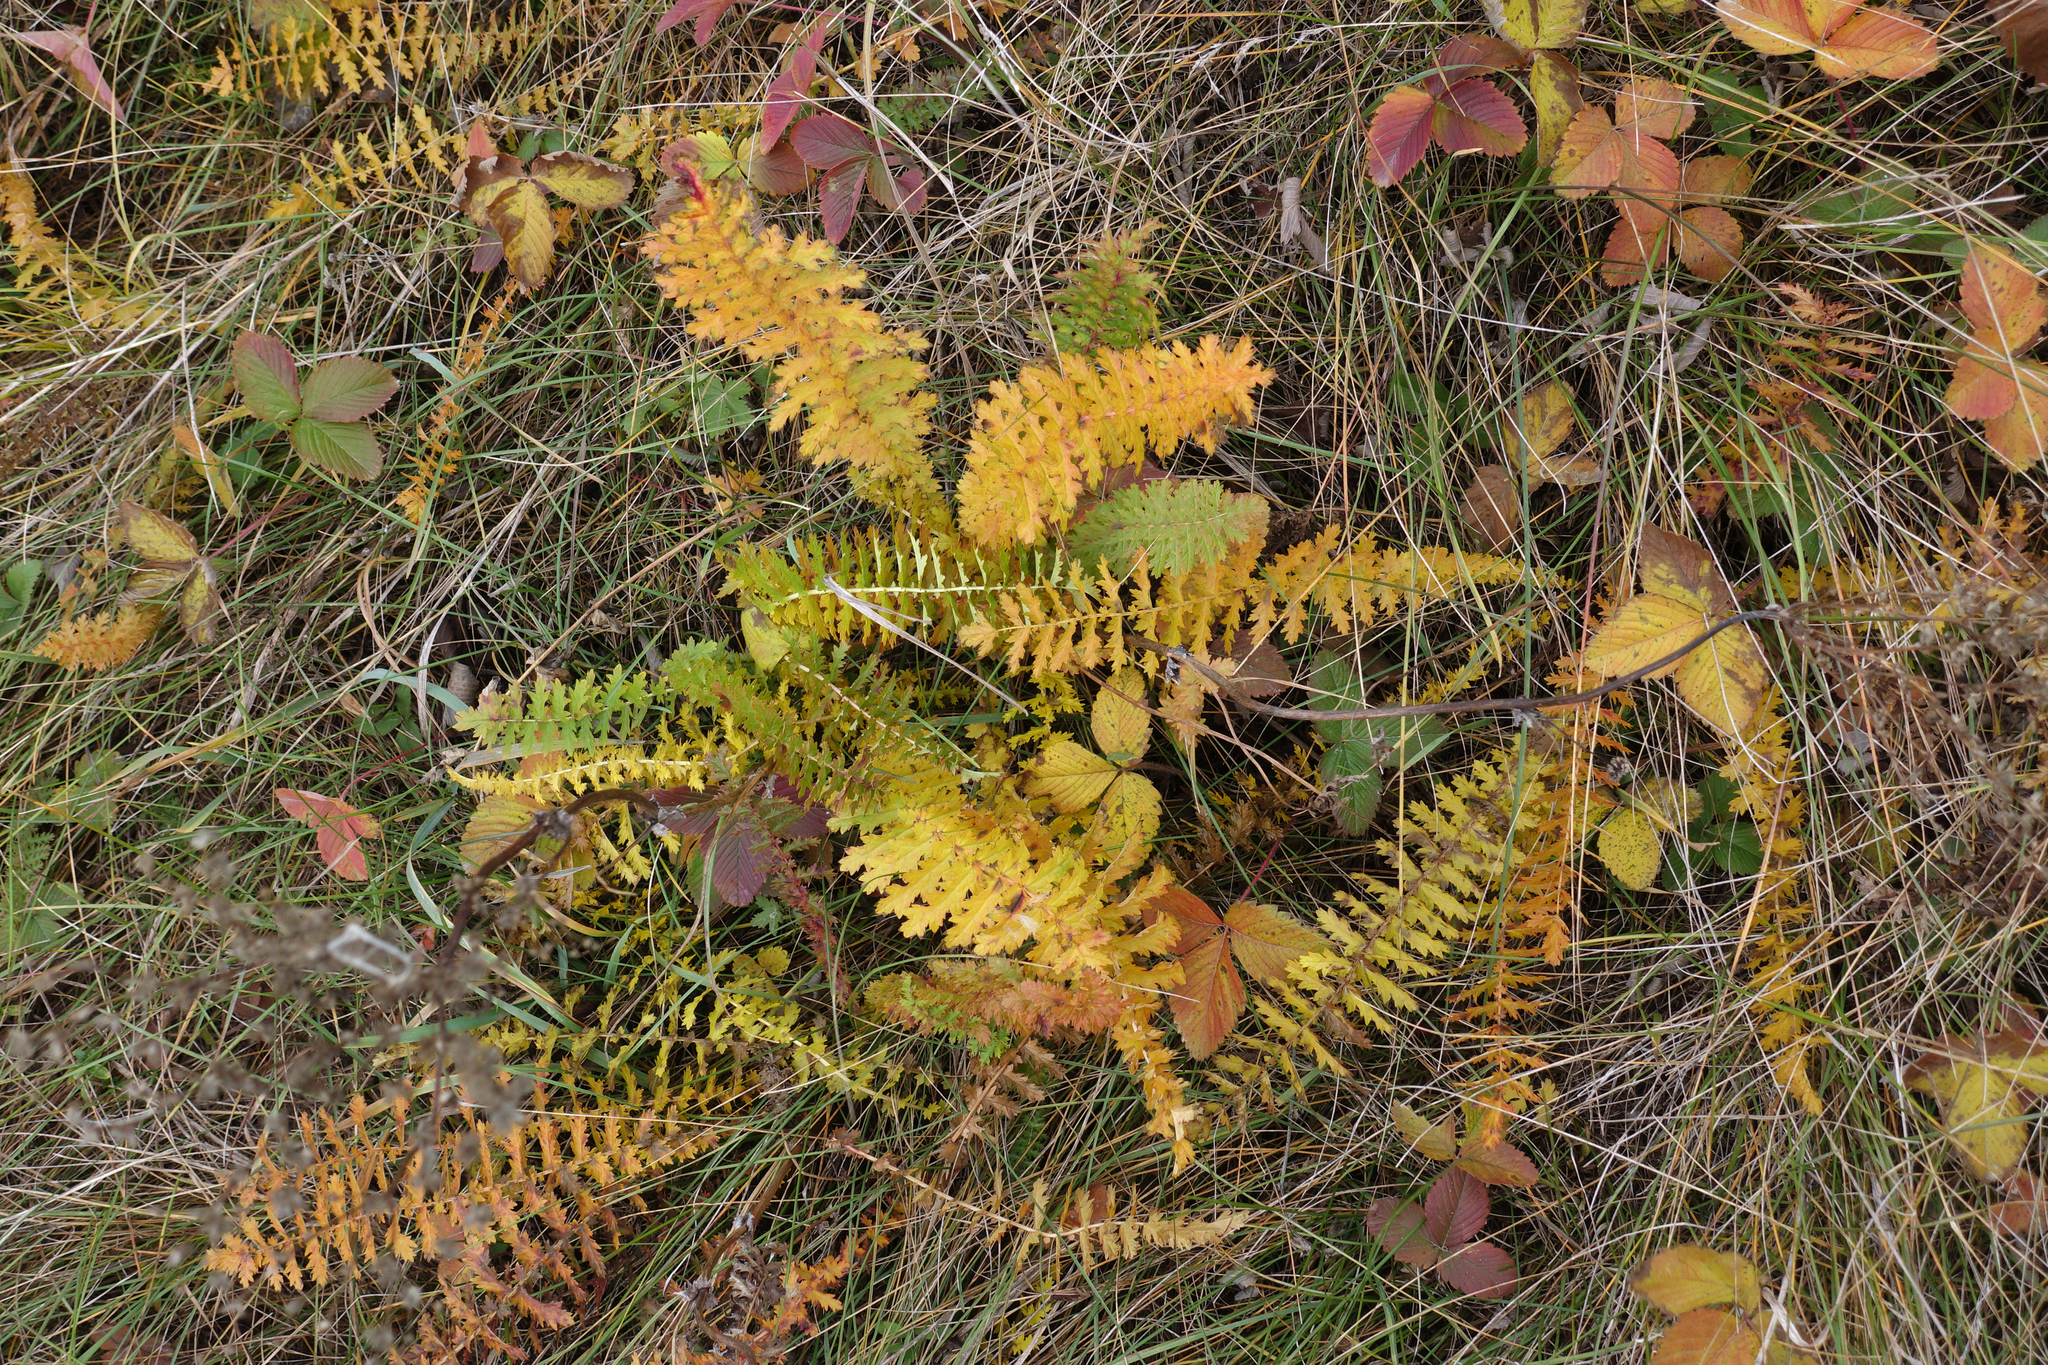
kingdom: Plantae
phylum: Tracheophyta
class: Magnoliopsida
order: Rosales
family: Rosaceae
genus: Filipendula
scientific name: Filipendula vulgaris
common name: Dropwort
